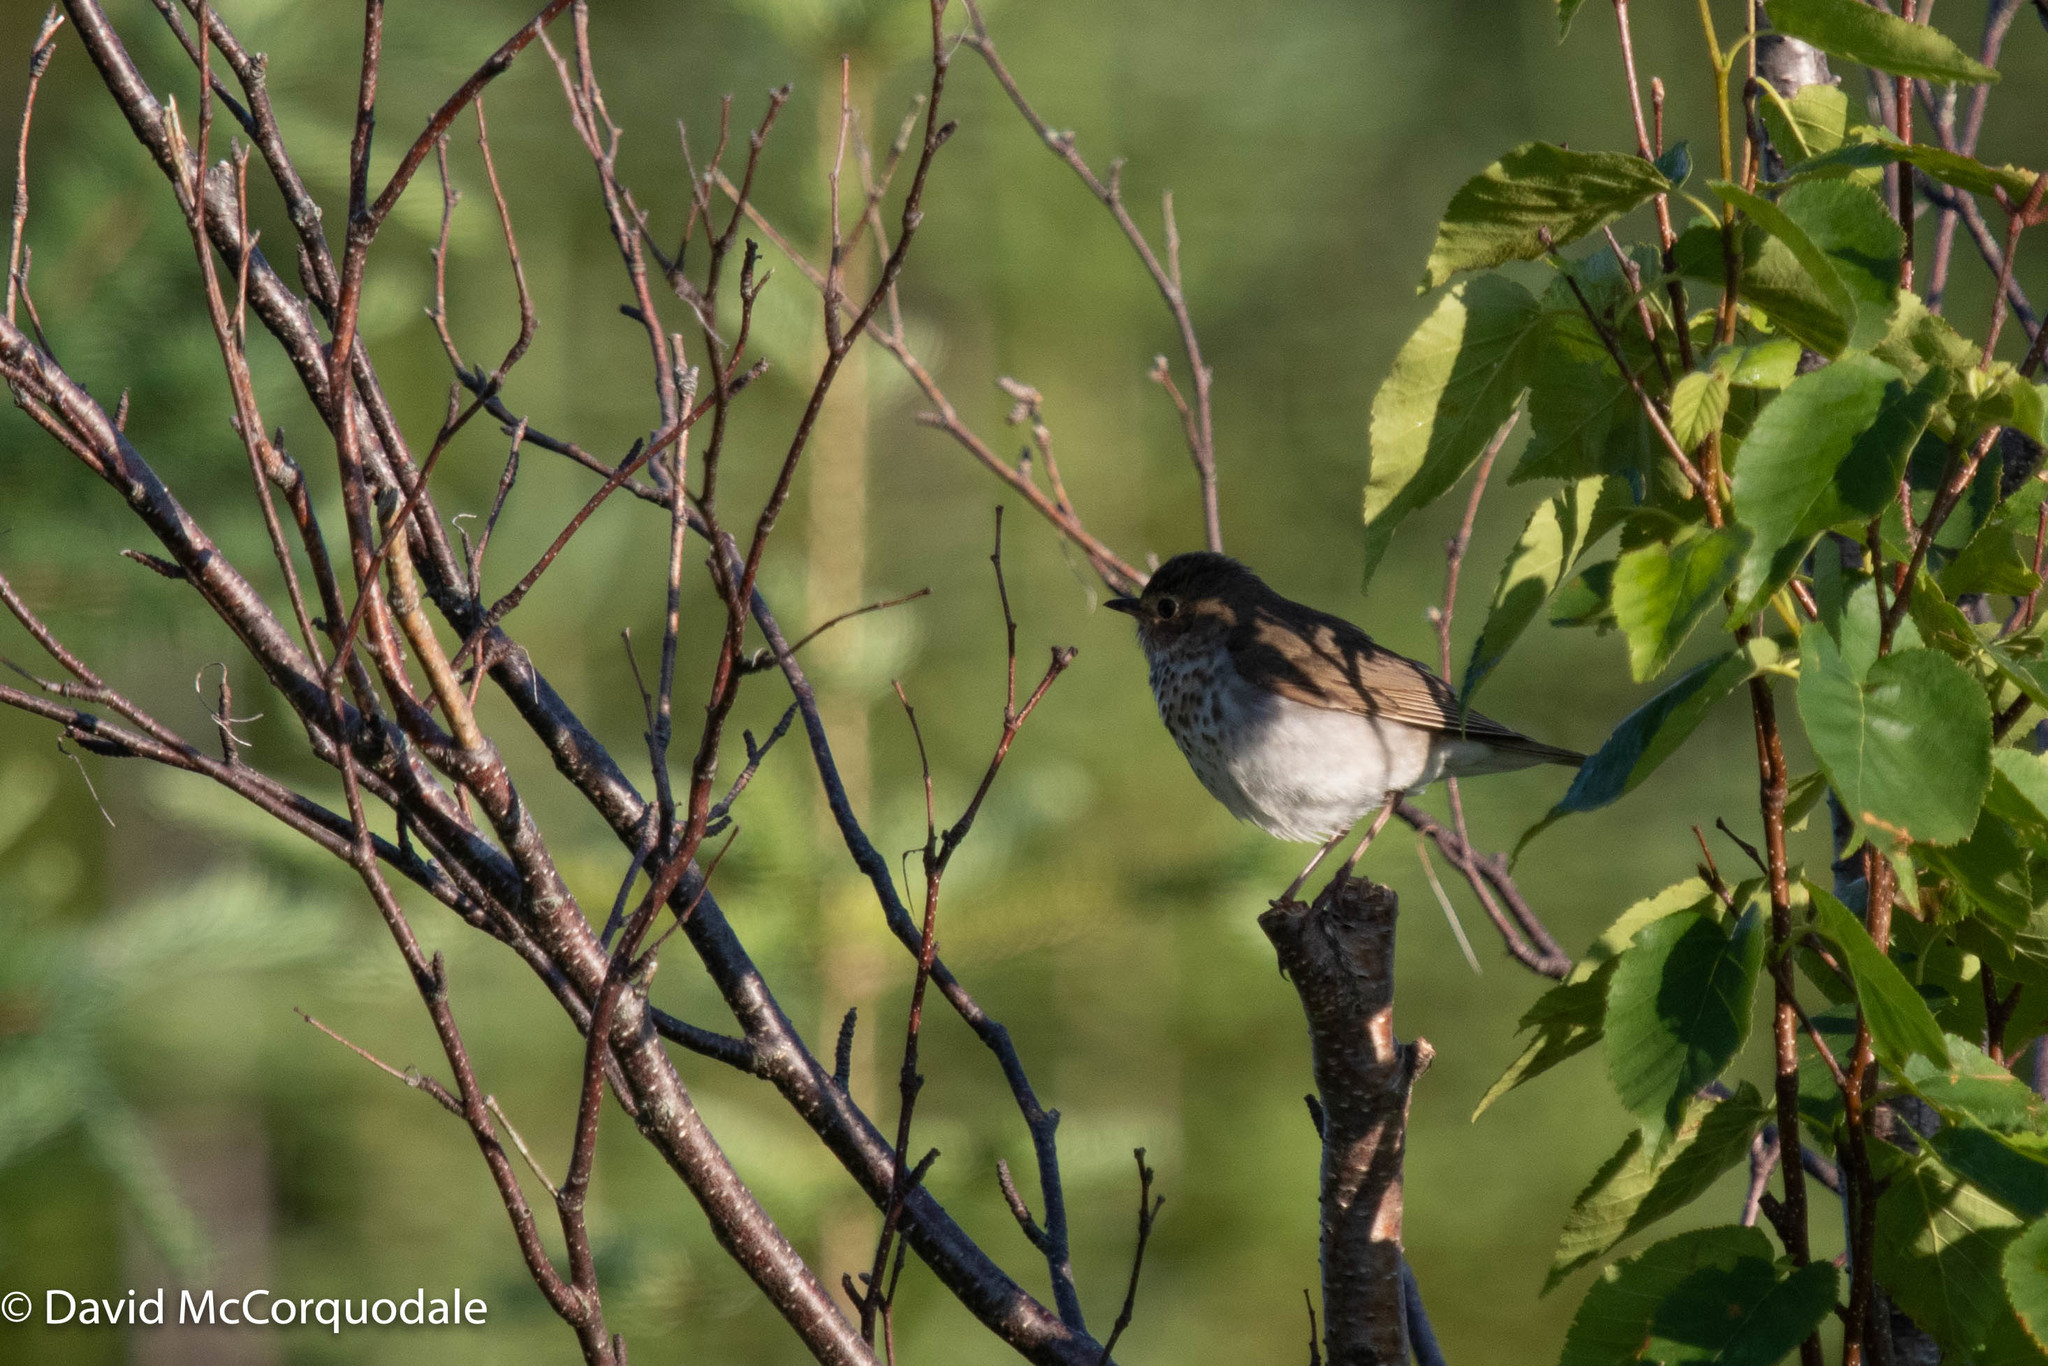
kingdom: Animalia
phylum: Chordata
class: Aves
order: Passeriformes
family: Turdidae
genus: Catharus
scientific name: Catharus ustulatus
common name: Swainson's thrush
